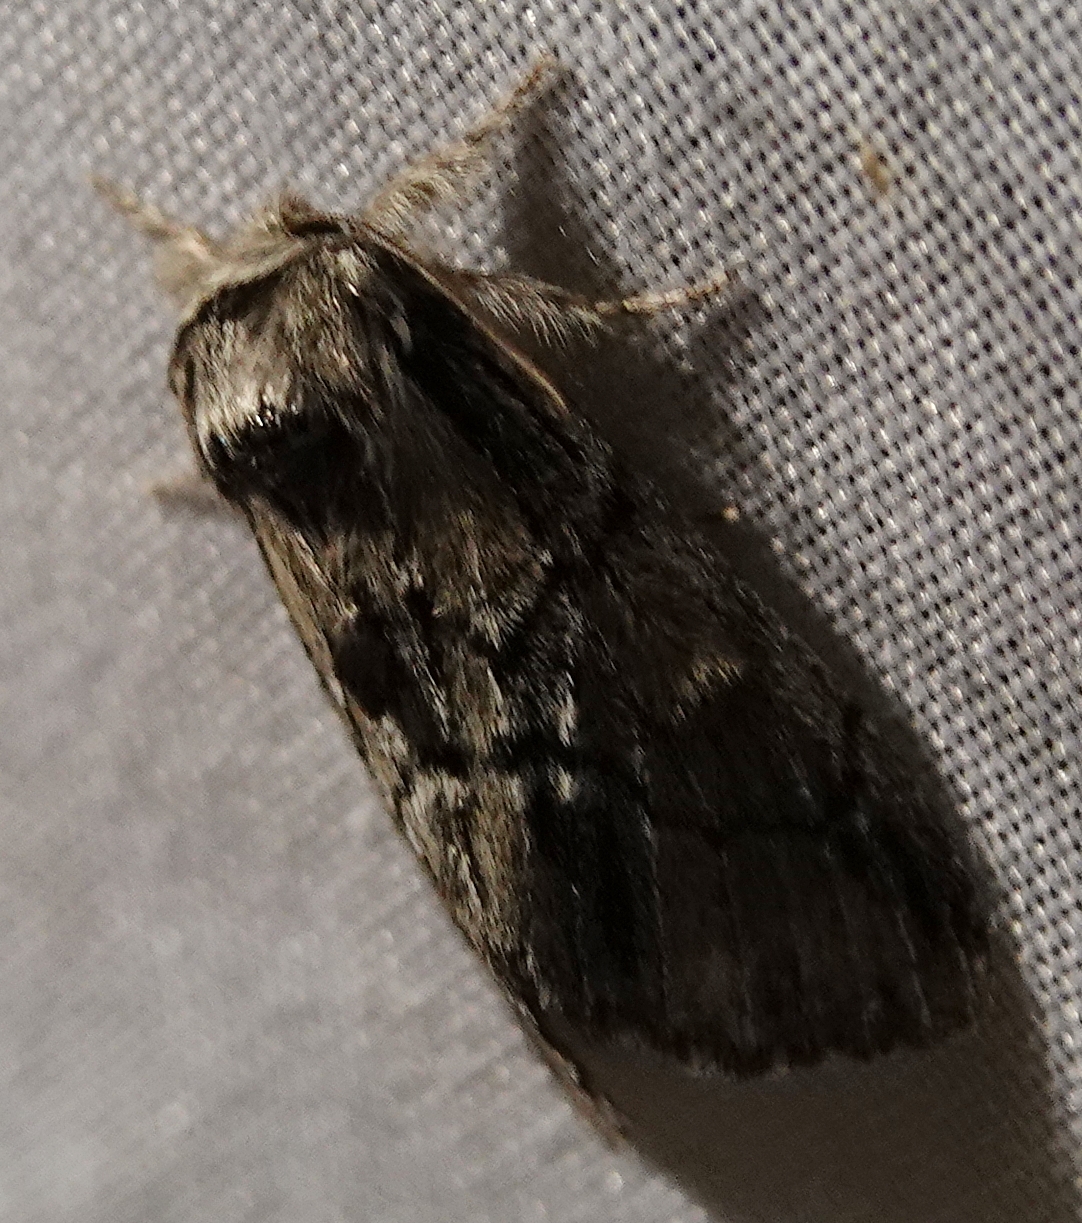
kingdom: Animalia
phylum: Arthropoda
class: Insecta
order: Lepidoptera
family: Notodontidae
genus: Paraeschra
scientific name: Paraeschra georgica
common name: Georgian prominent
